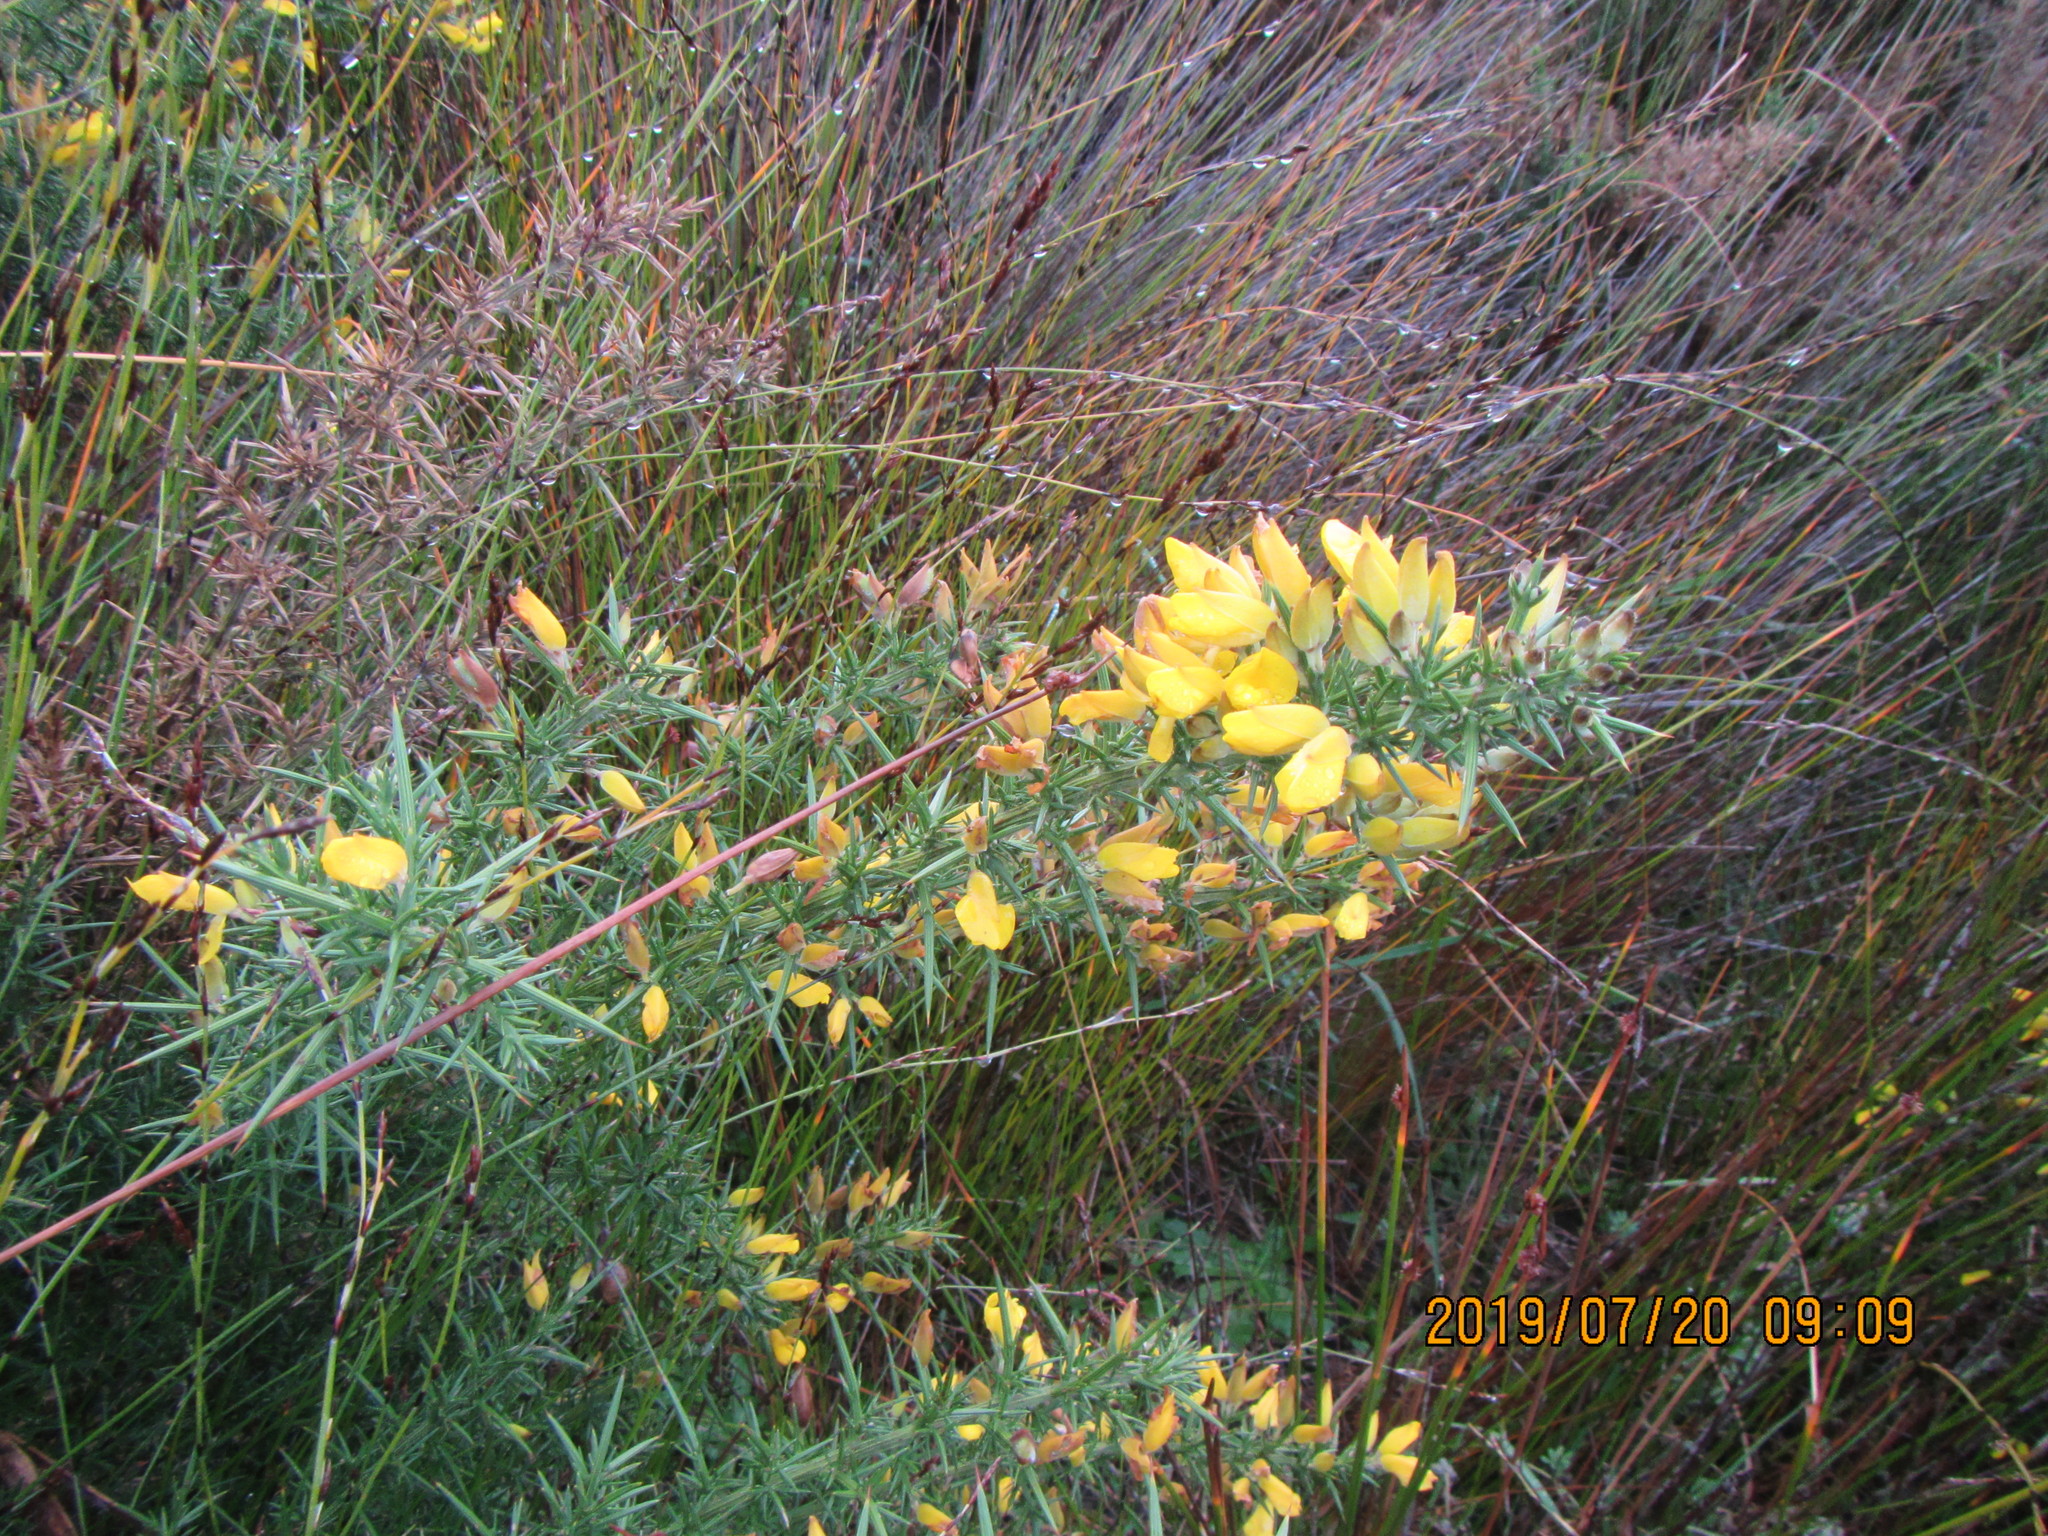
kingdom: Plantae
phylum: Tracheophyta
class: Magnoliopsida
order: Fabales
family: Fabaceae
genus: Ulex
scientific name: Ulex europaeus
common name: Common gorse
